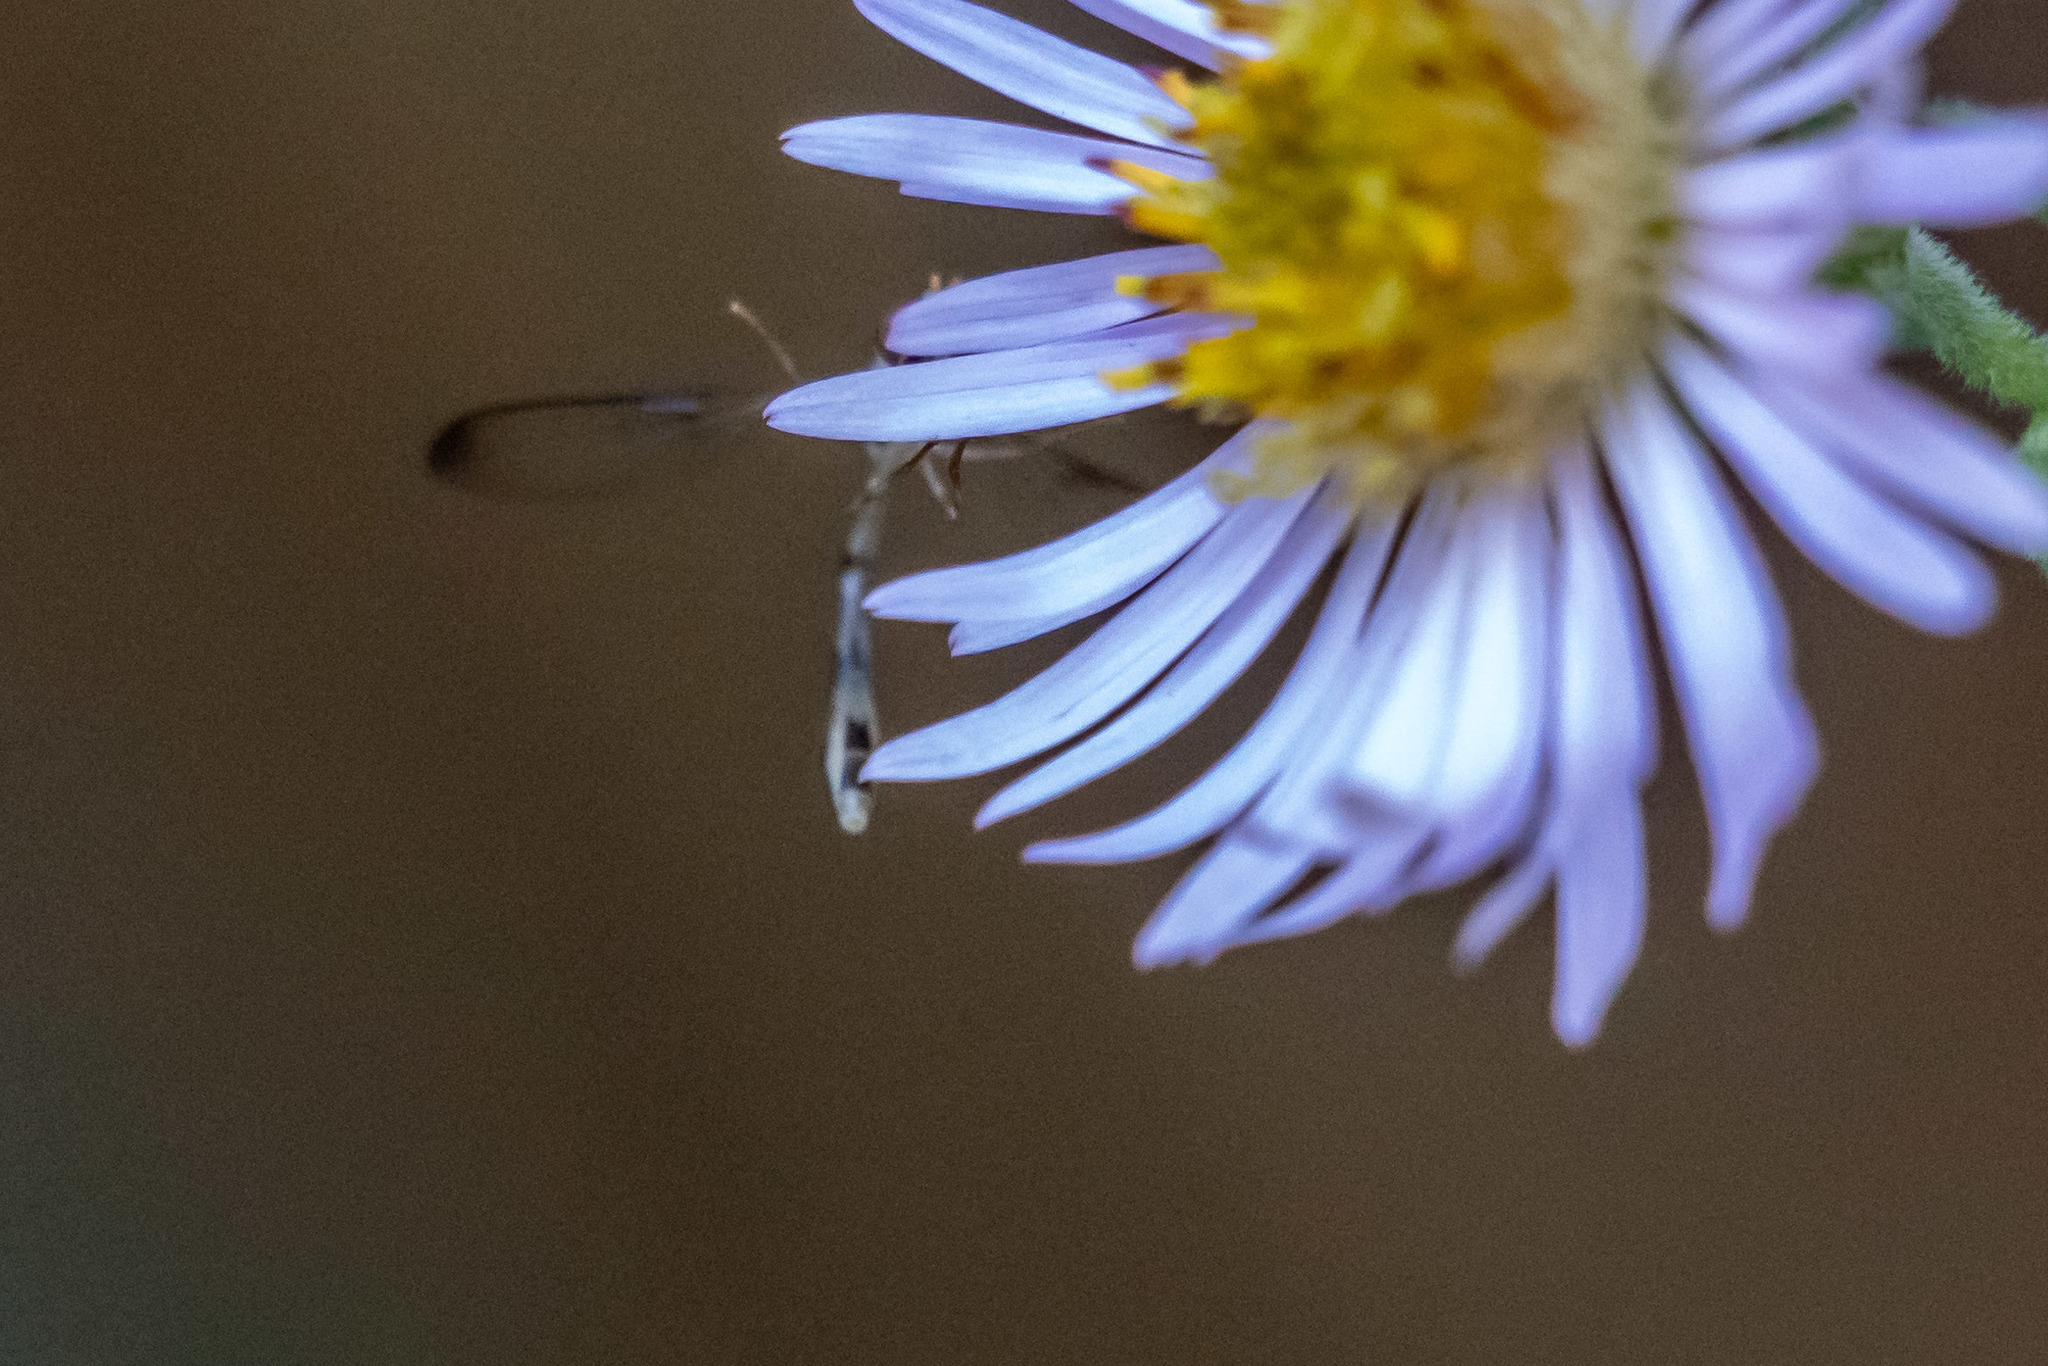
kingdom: Animalia
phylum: Arthropoda
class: Insecta
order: Diptera
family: Syrphidae
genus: Victoriana
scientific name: Victoriana attenuata
